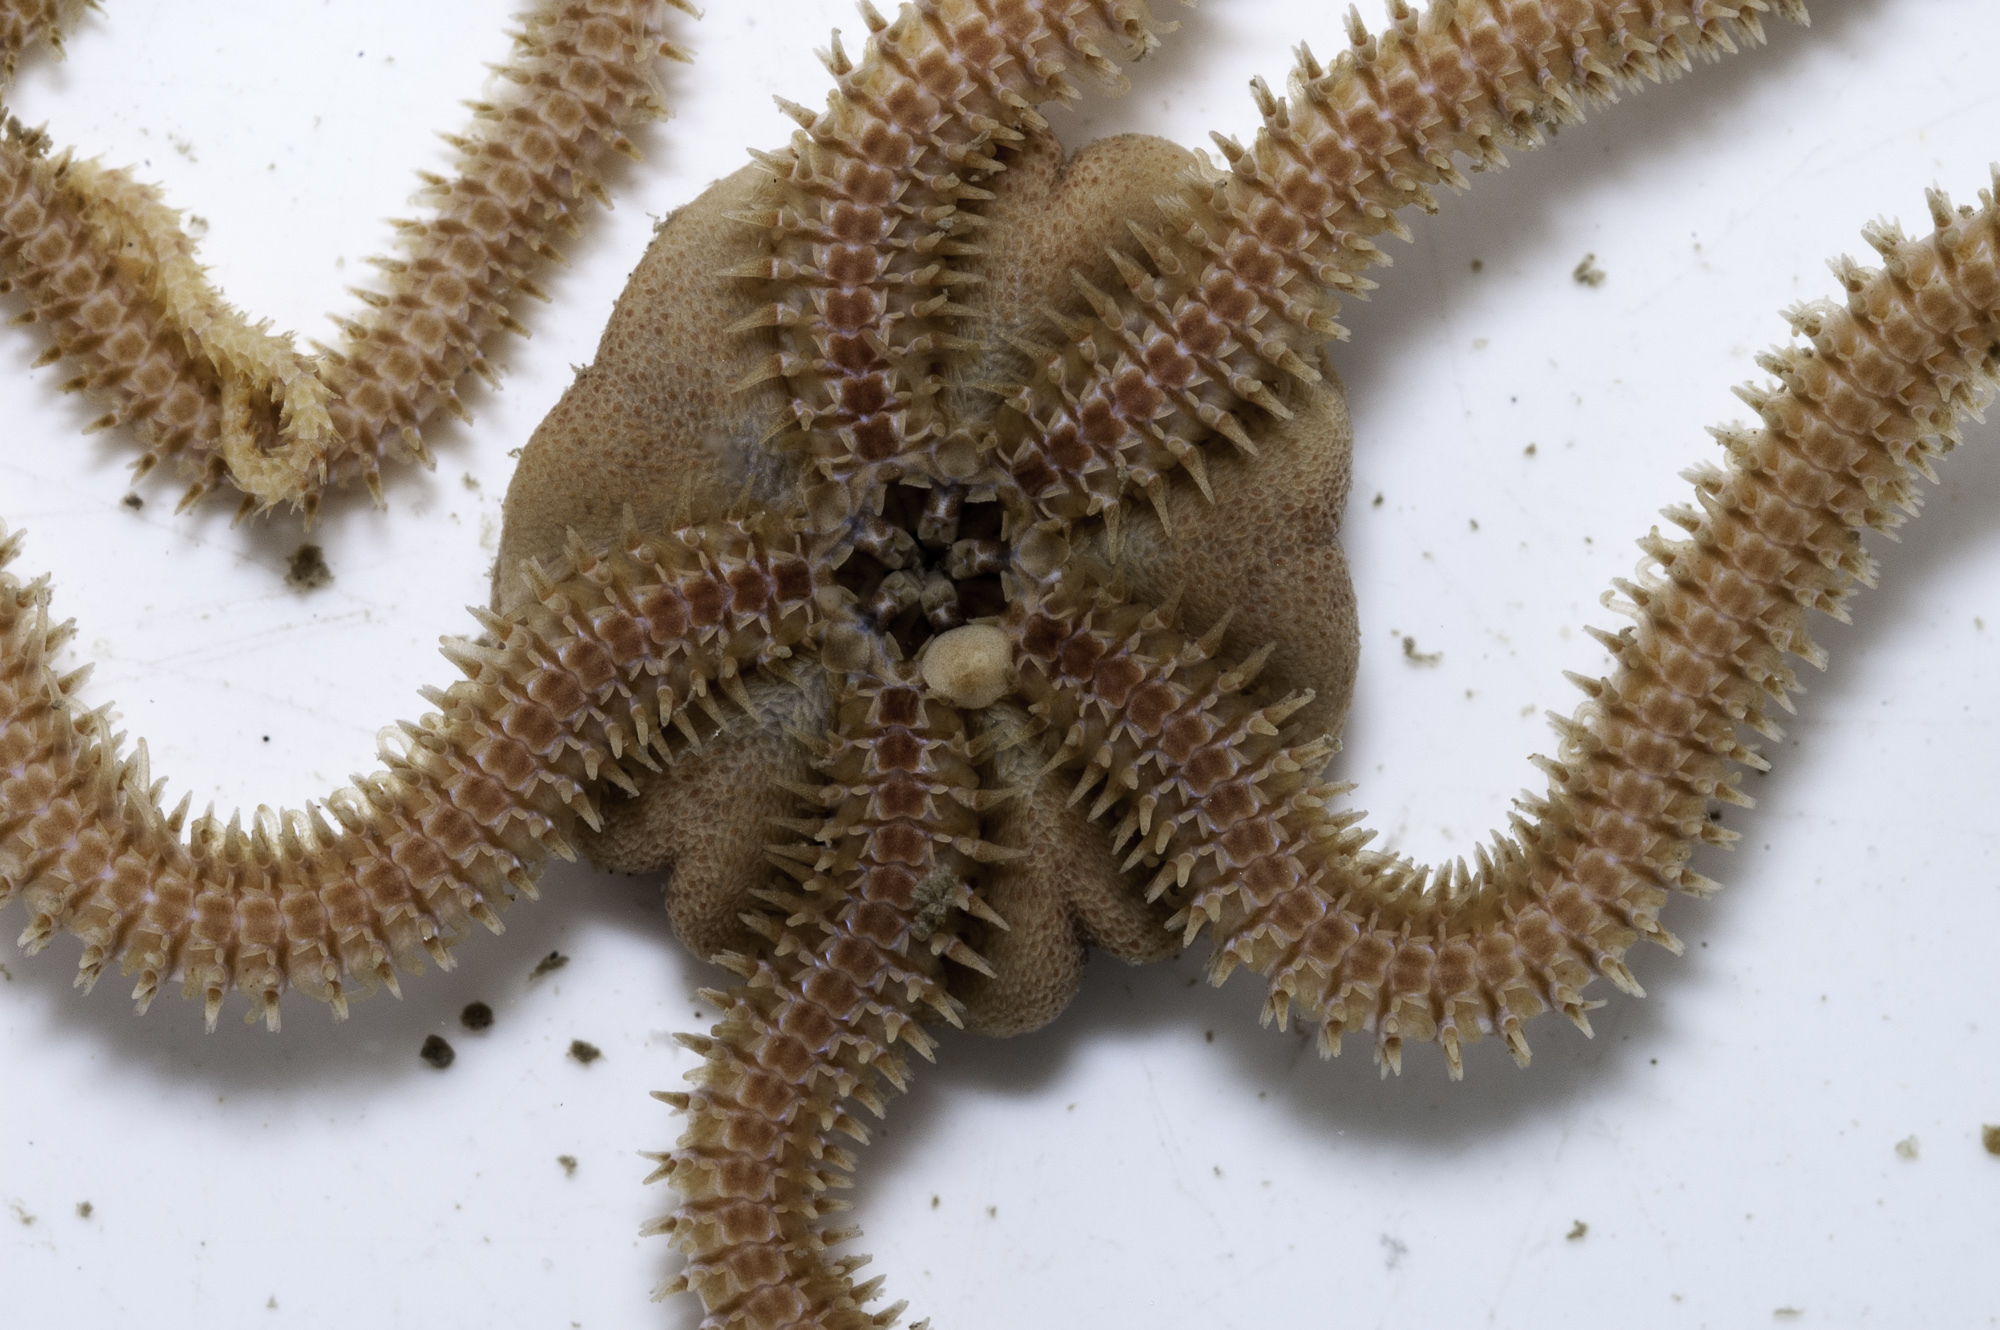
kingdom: Animalia
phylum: Echinodermata
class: Ophiuroidea
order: Amphilepidida
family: Amphiuridae
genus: Amphiura
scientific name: Amphiura chiajei
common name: Brittlestar
